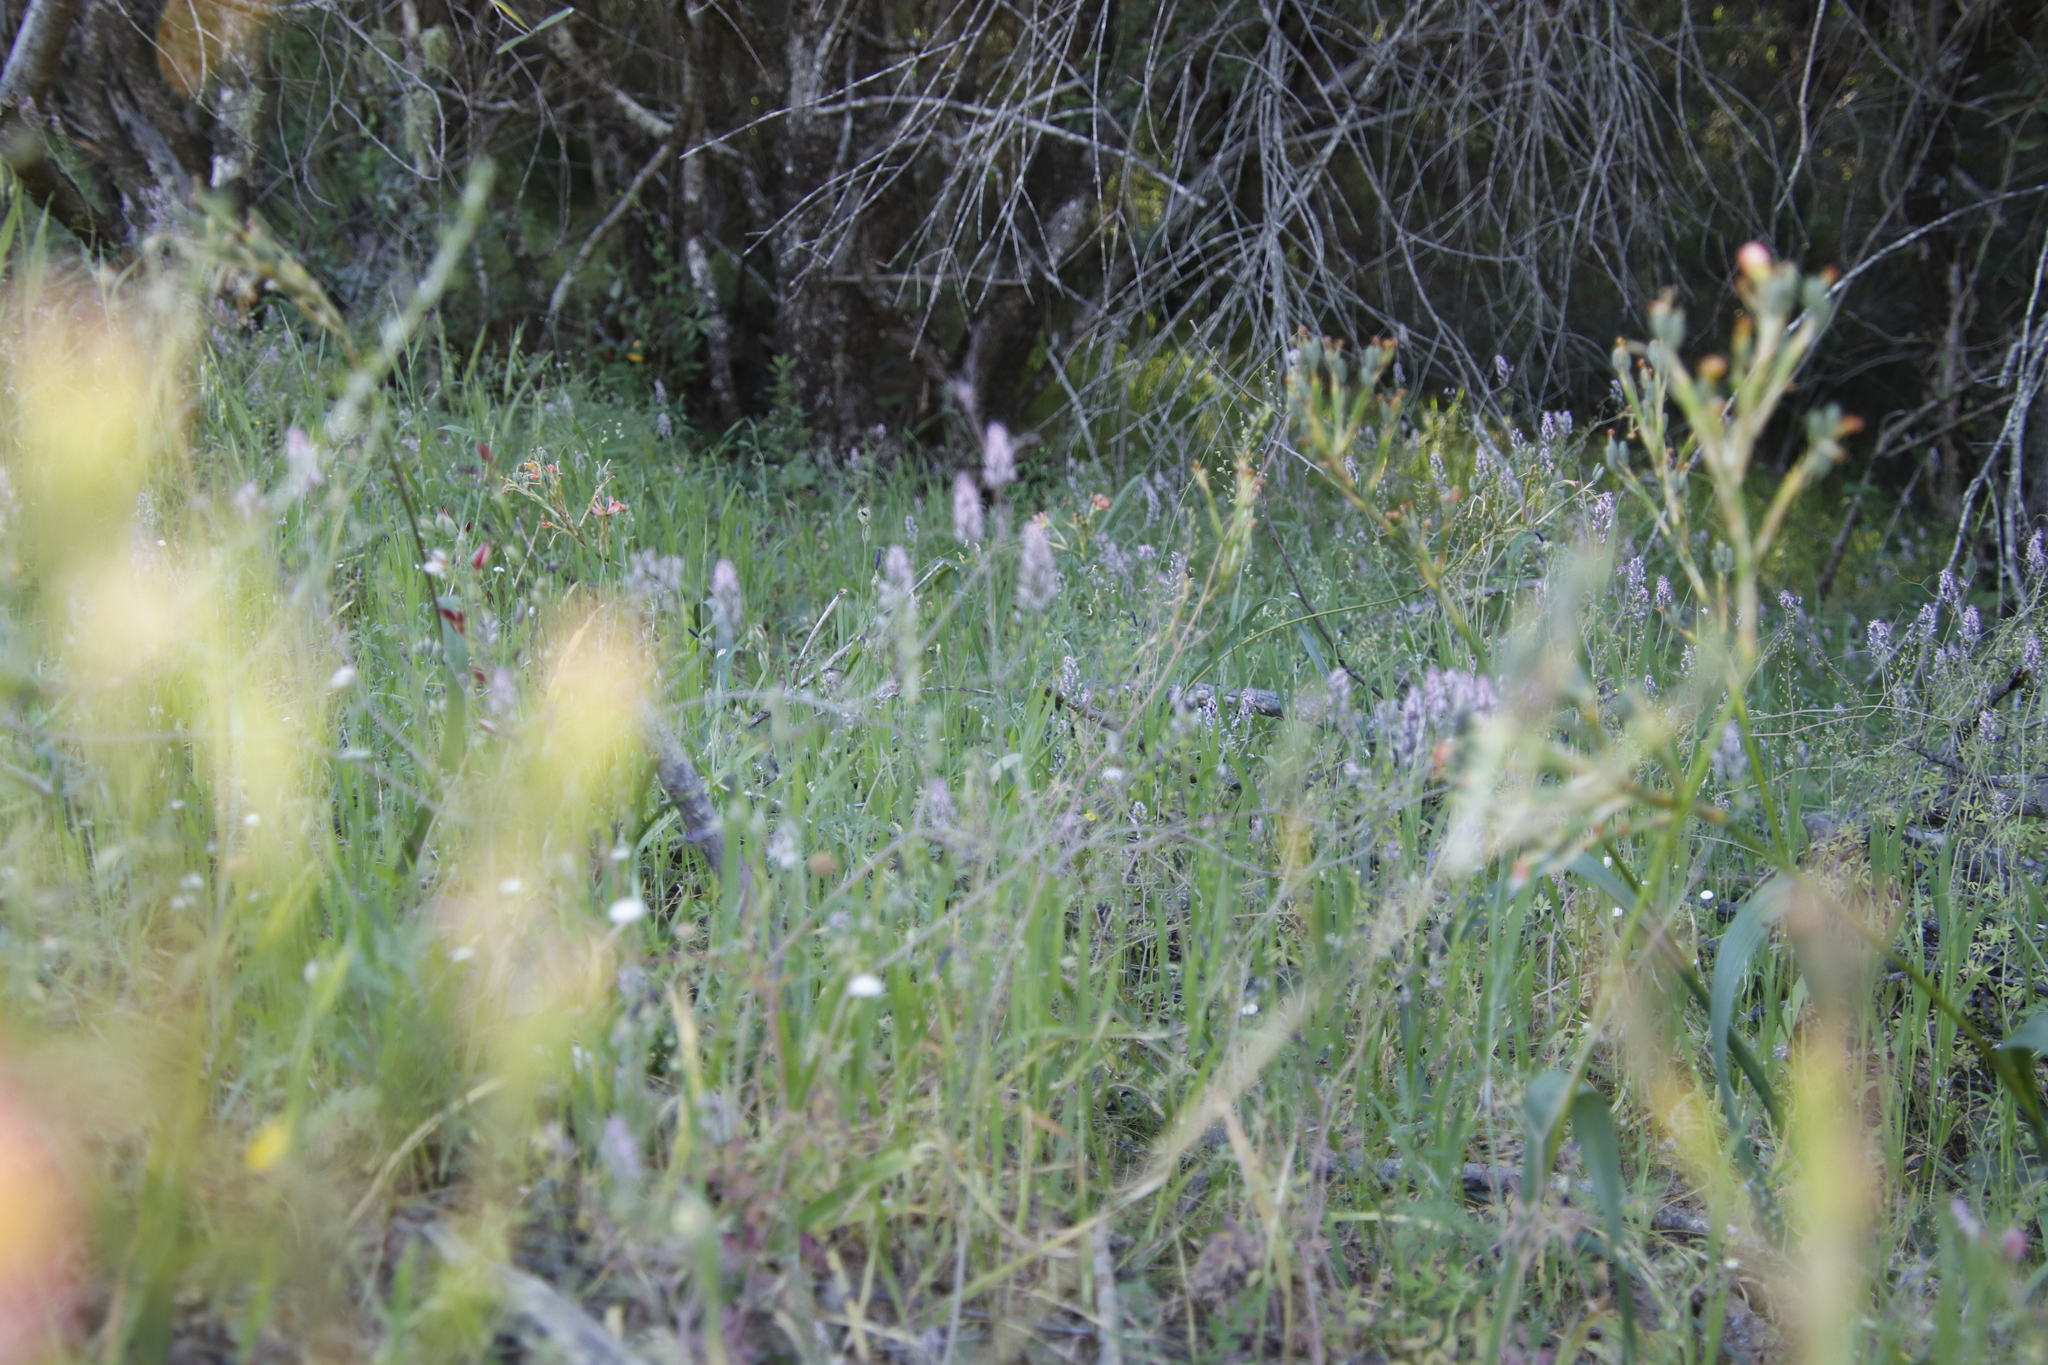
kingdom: Plantae
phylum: Tracheophyta
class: Magnoliopsida
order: Ranunculales
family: Papaveraceae
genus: Trigonocapnos
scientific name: Trigonocapnos lichtensteinii
